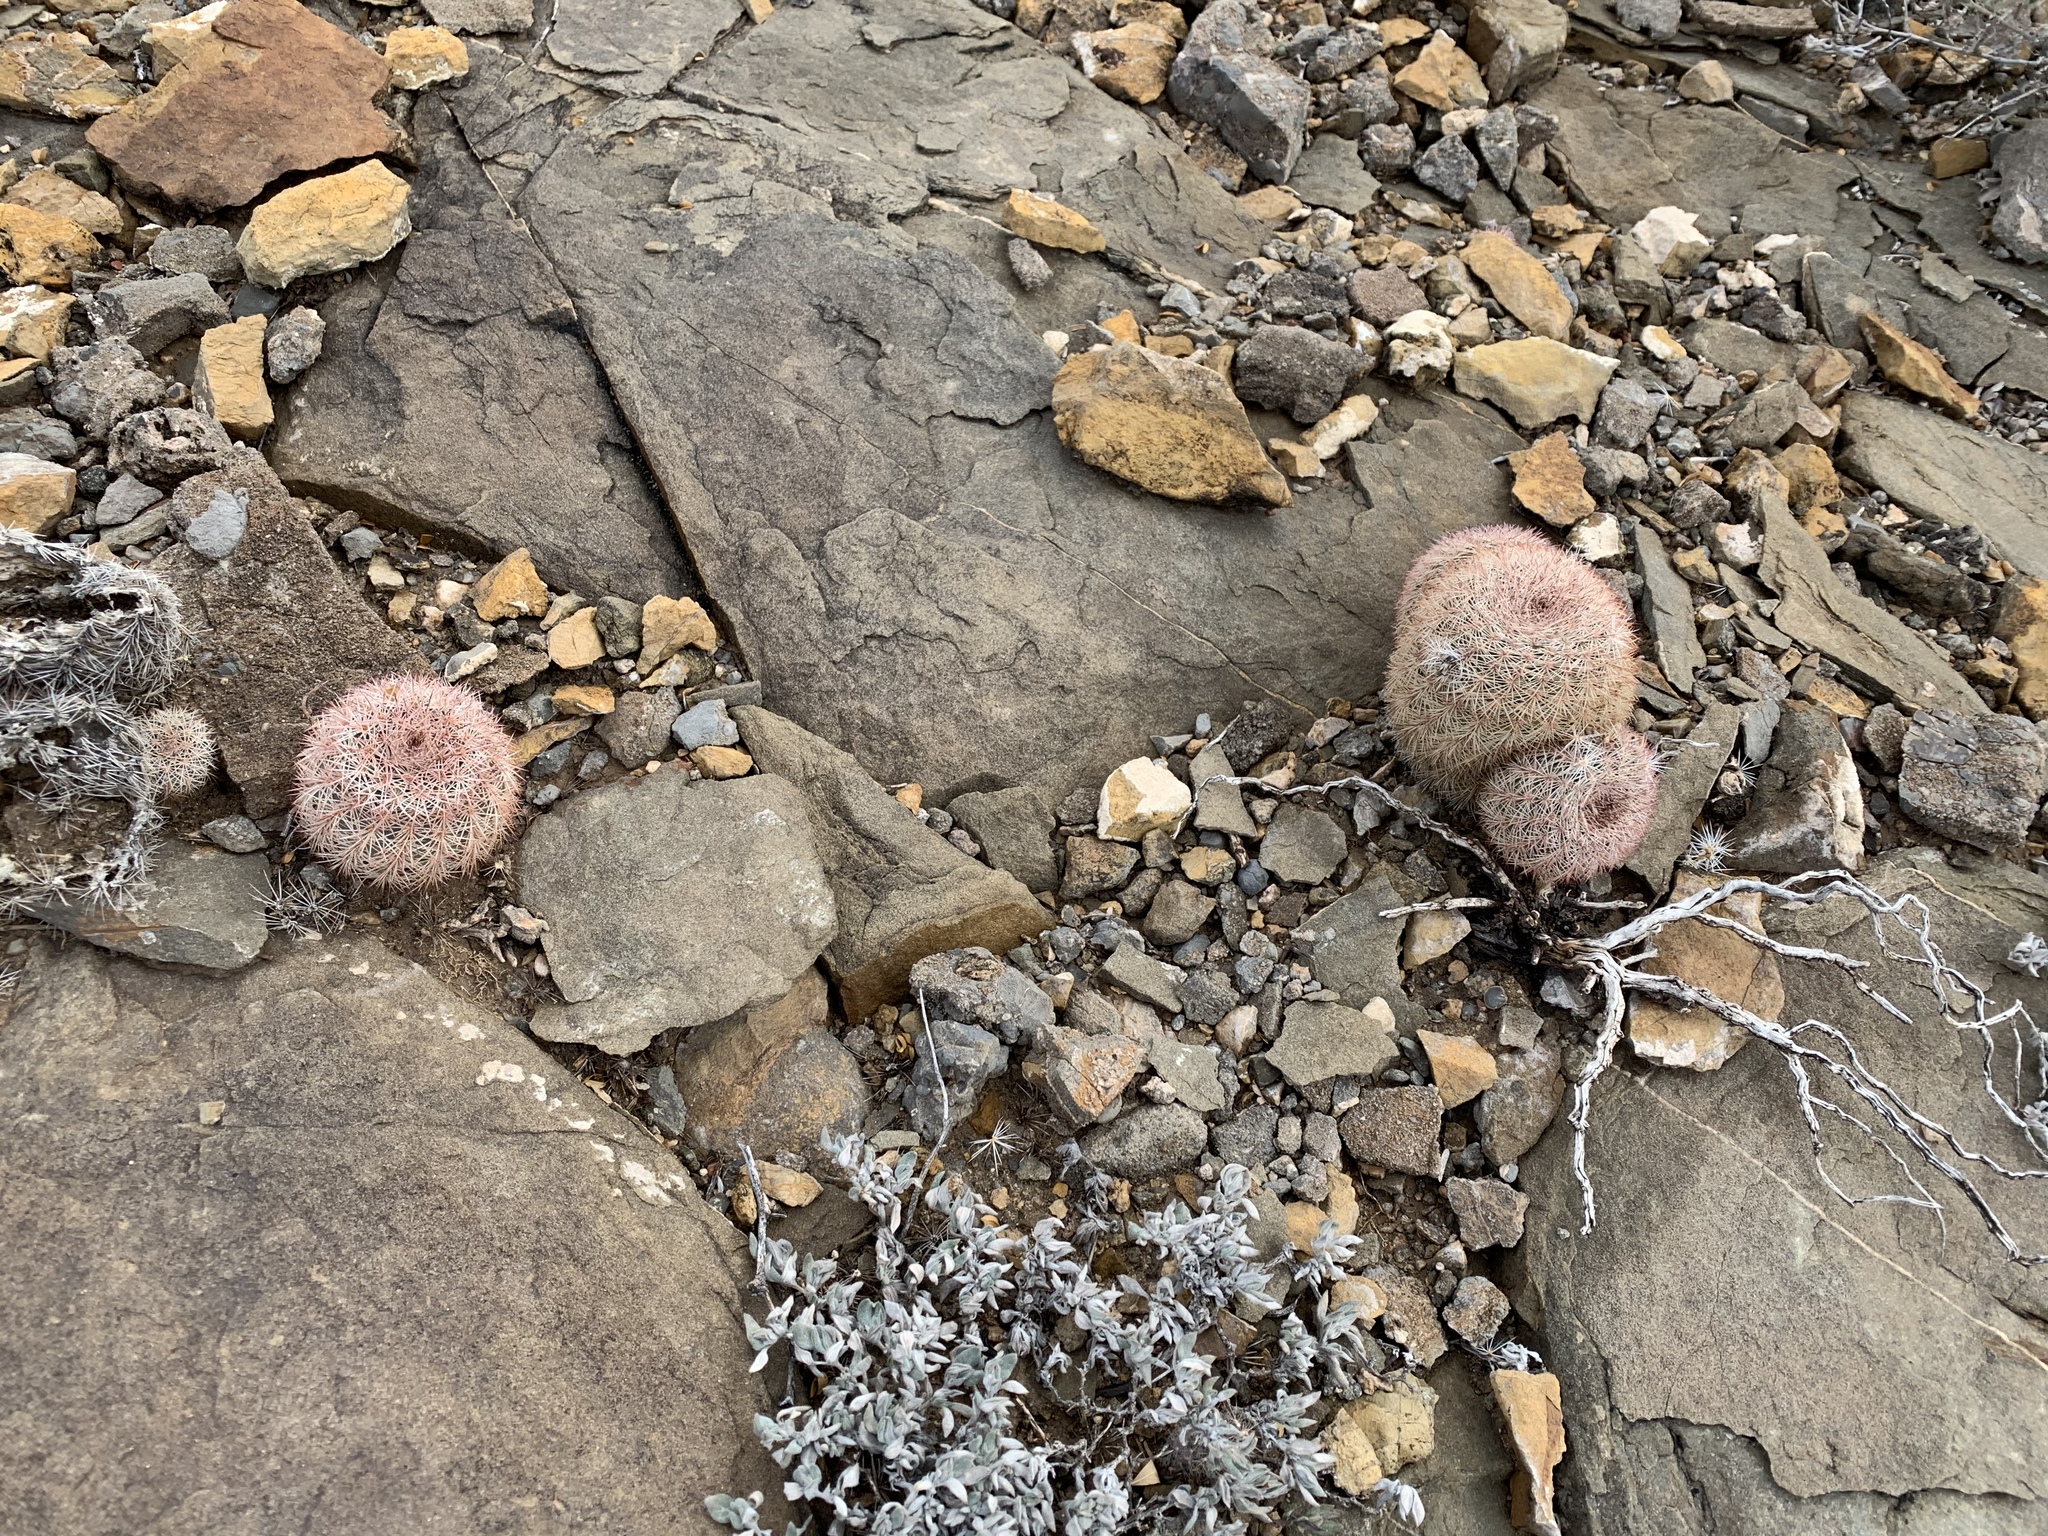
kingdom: Plantae
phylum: Tracheophyta
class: Magnoliopsida
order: Caryophyllales
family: Cactaceae
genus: Echinocereus
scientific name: Echinocereus dasyacanthus
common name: Spiny hedgehog cactus
